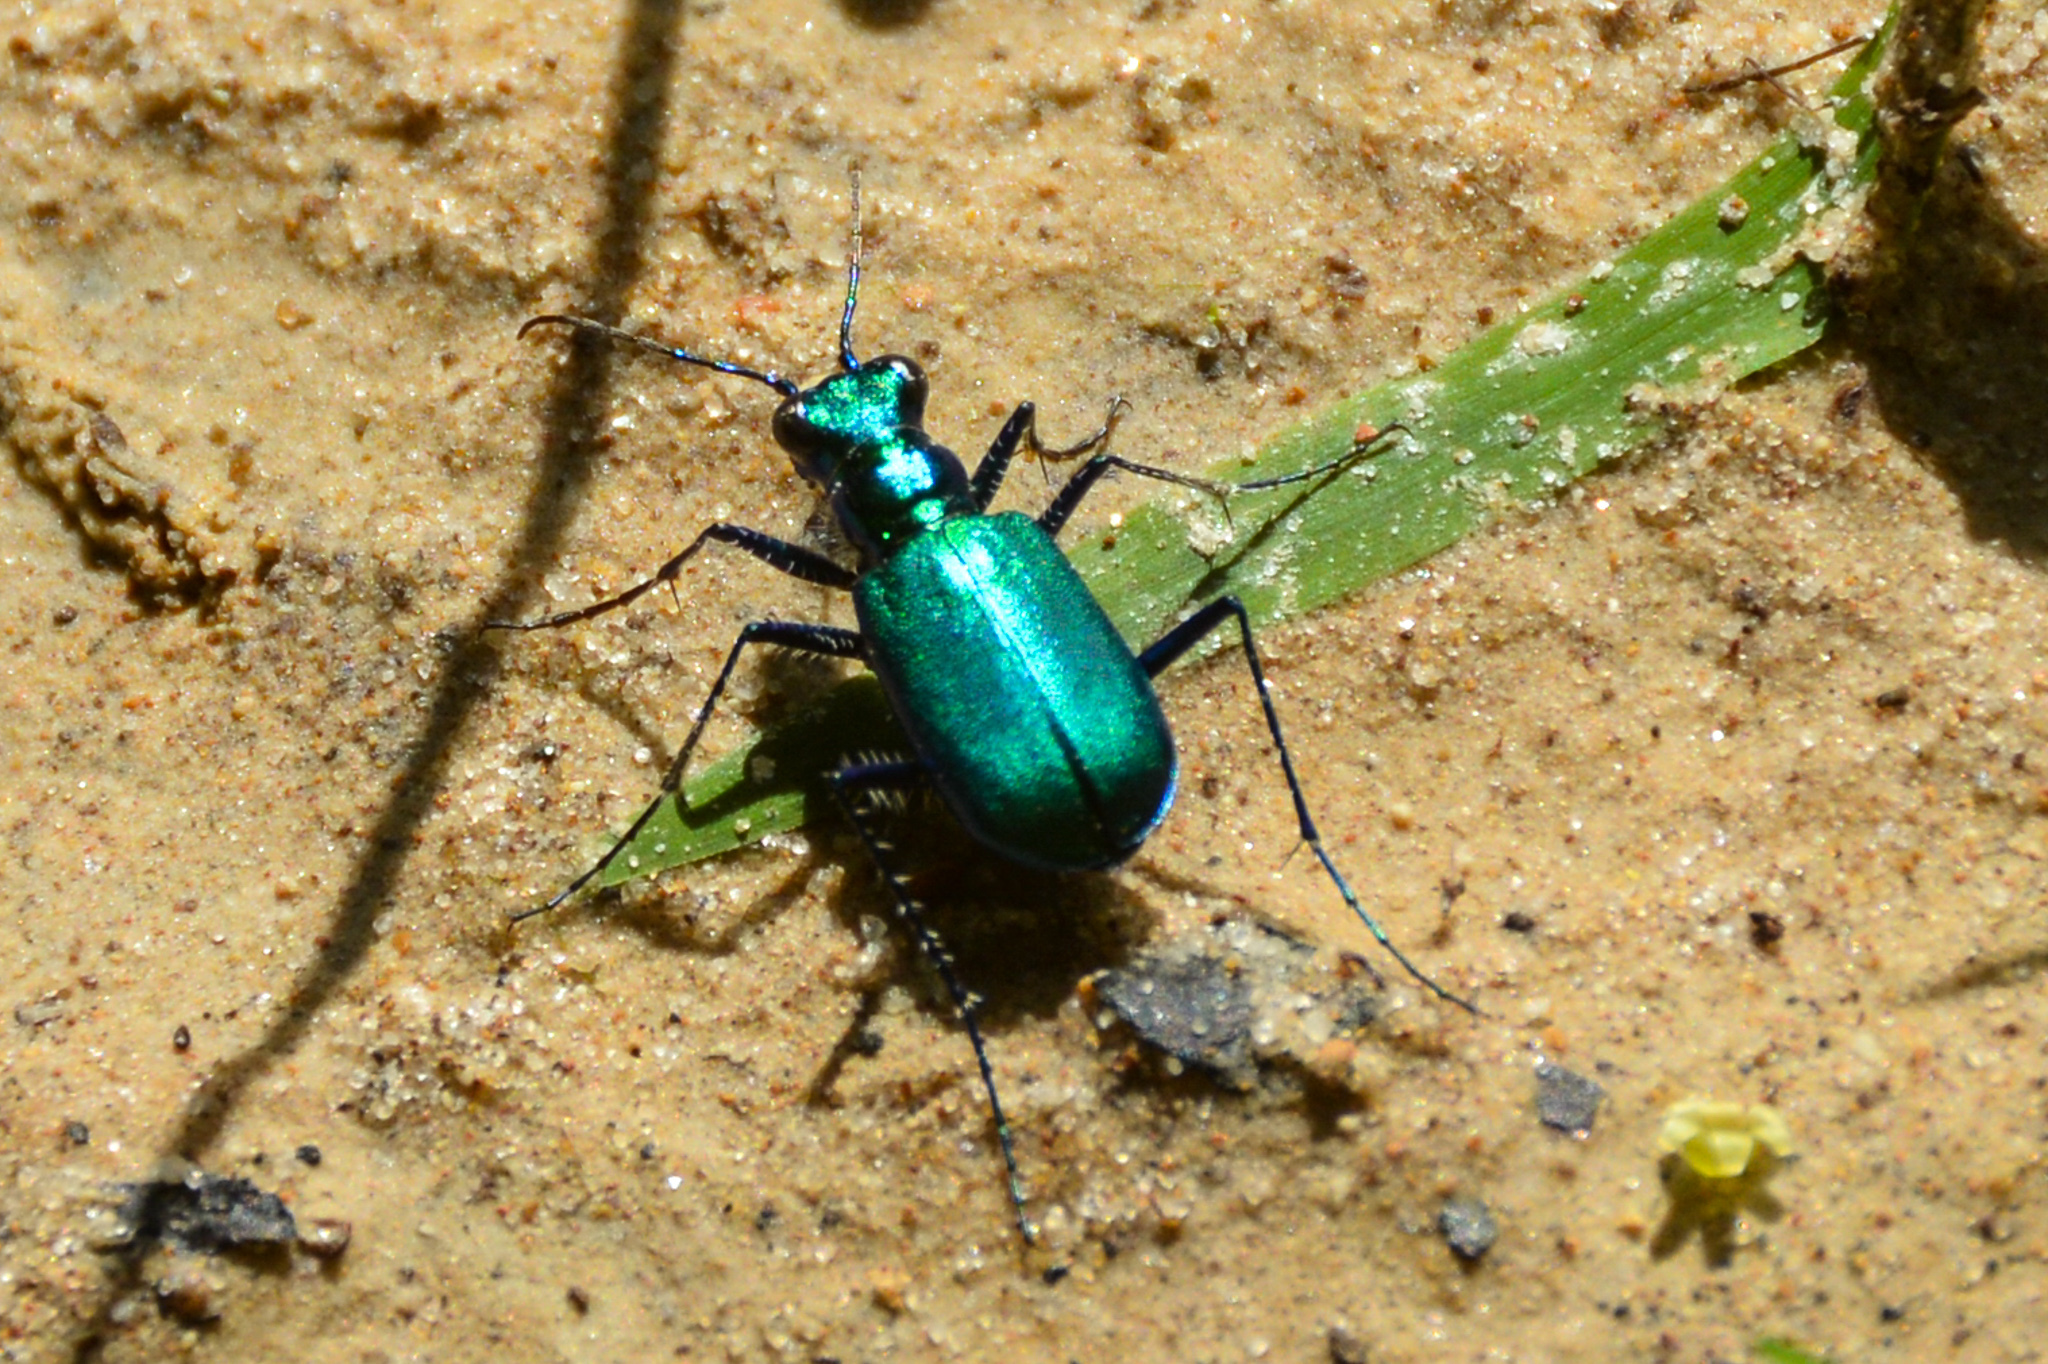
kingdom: Animalia
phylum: Arthropoda
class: Insecta
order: Coleoptera
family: Carabidae
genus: Cicindela
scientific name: Cicindela sexguttata
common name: Six-spotted tiger beetle
